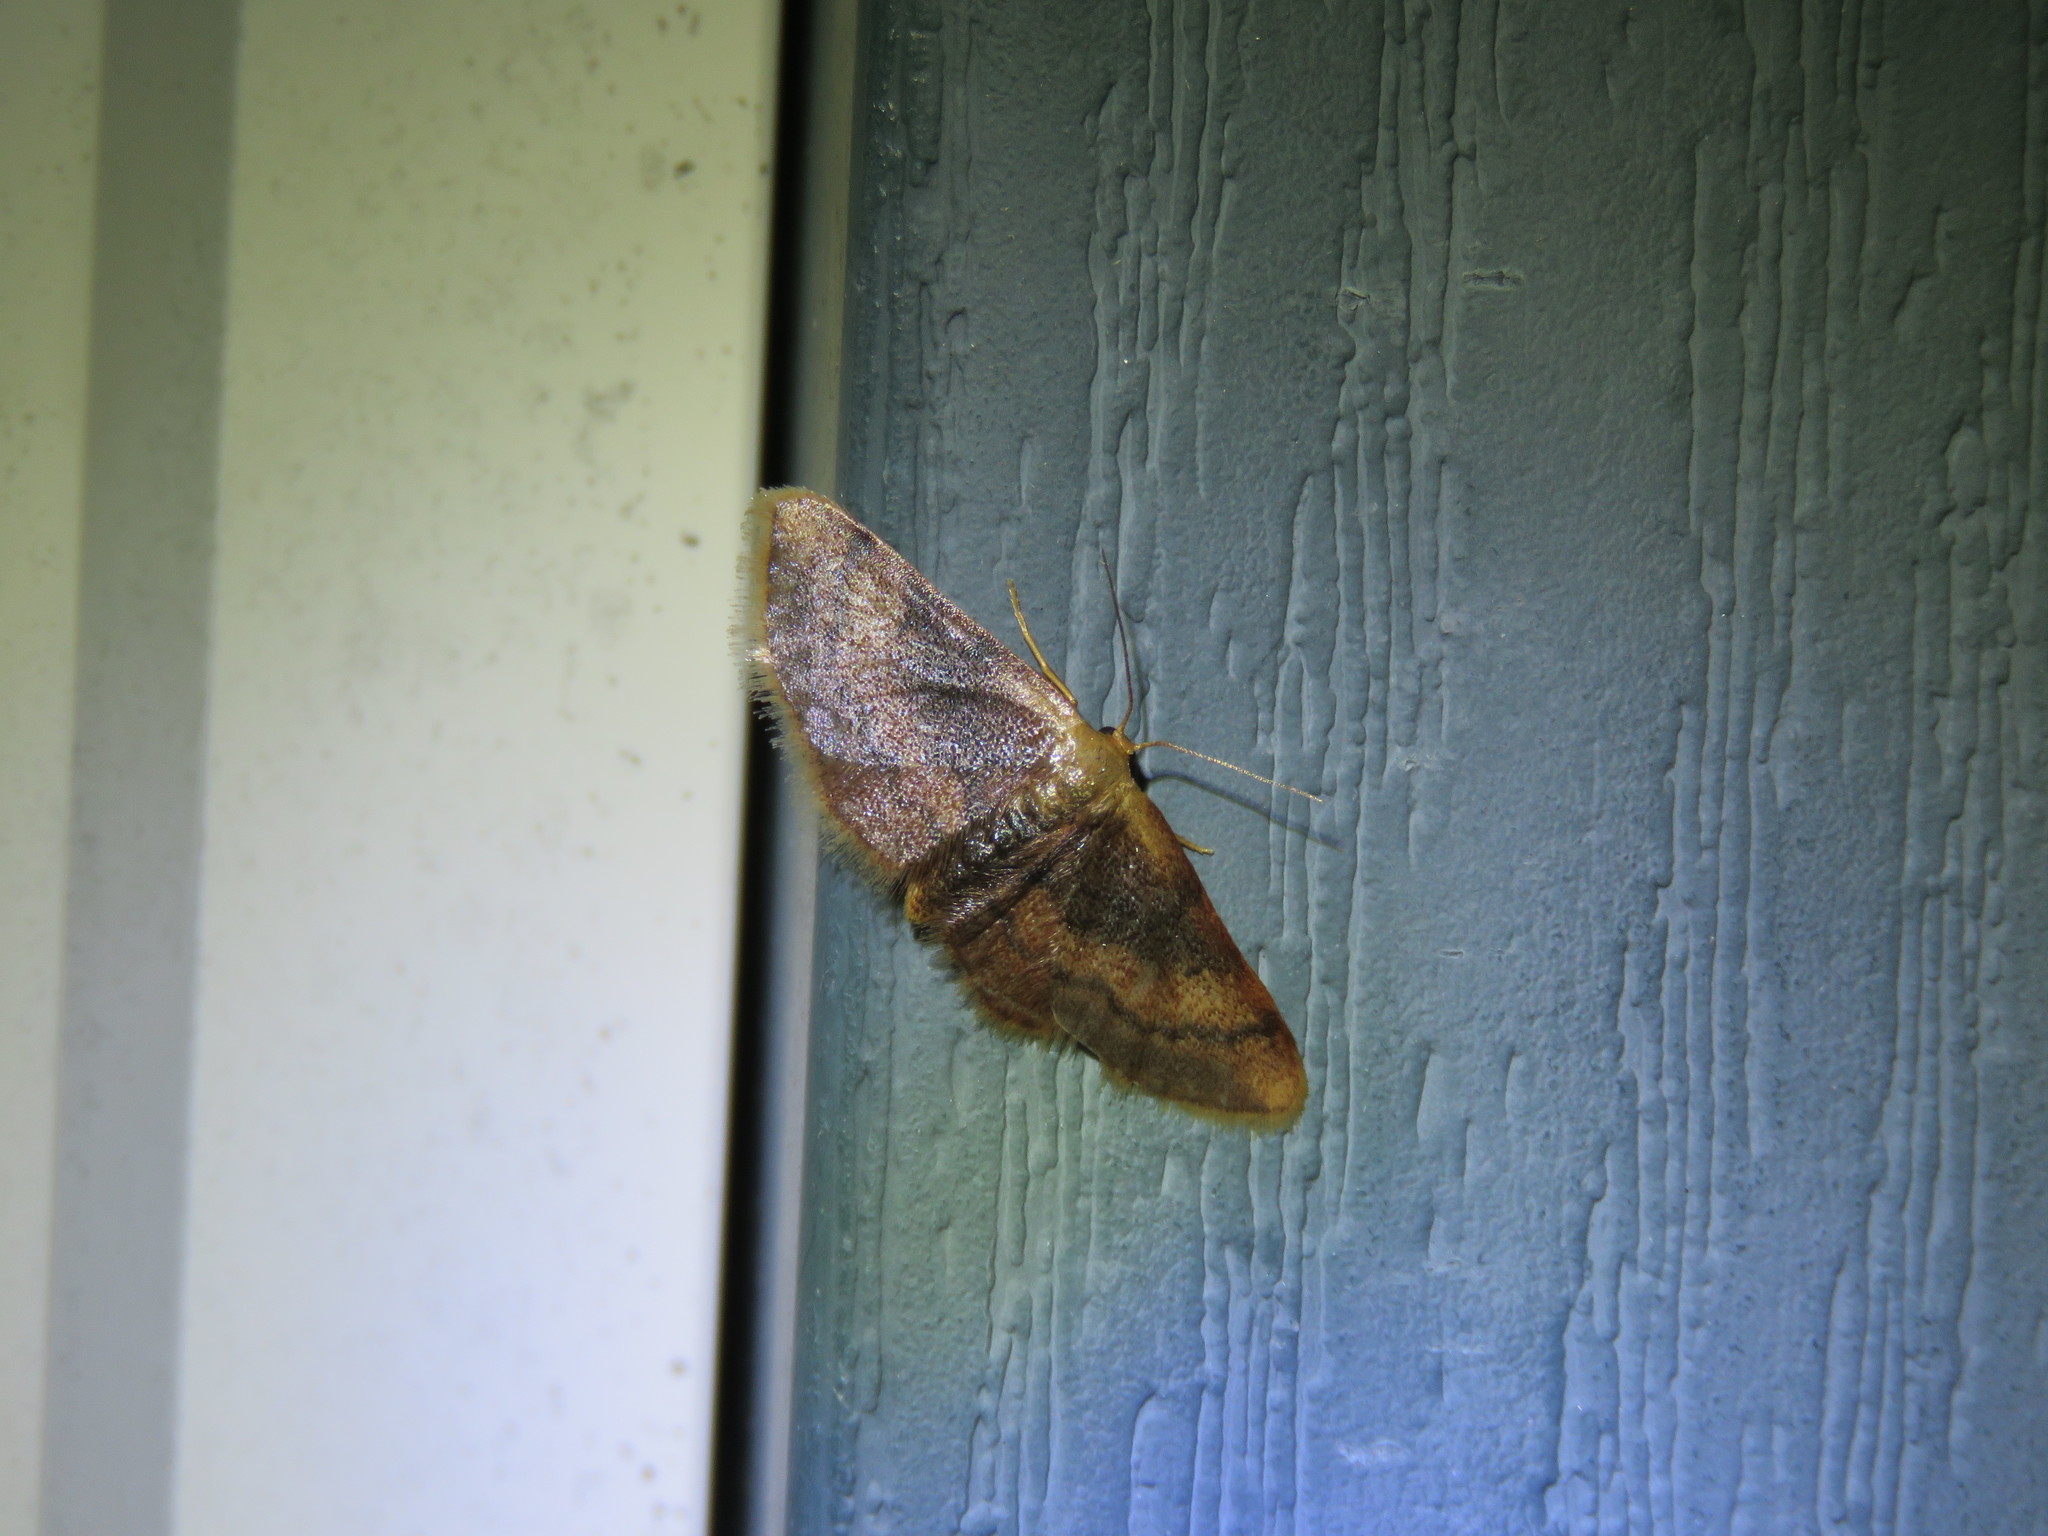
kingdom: Animalia
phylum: Arthropoda
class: Insecta
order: Lepidoptera
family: Geometridae
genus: Idaea
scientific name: Idaea demissaria
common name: Red-bordered wave
